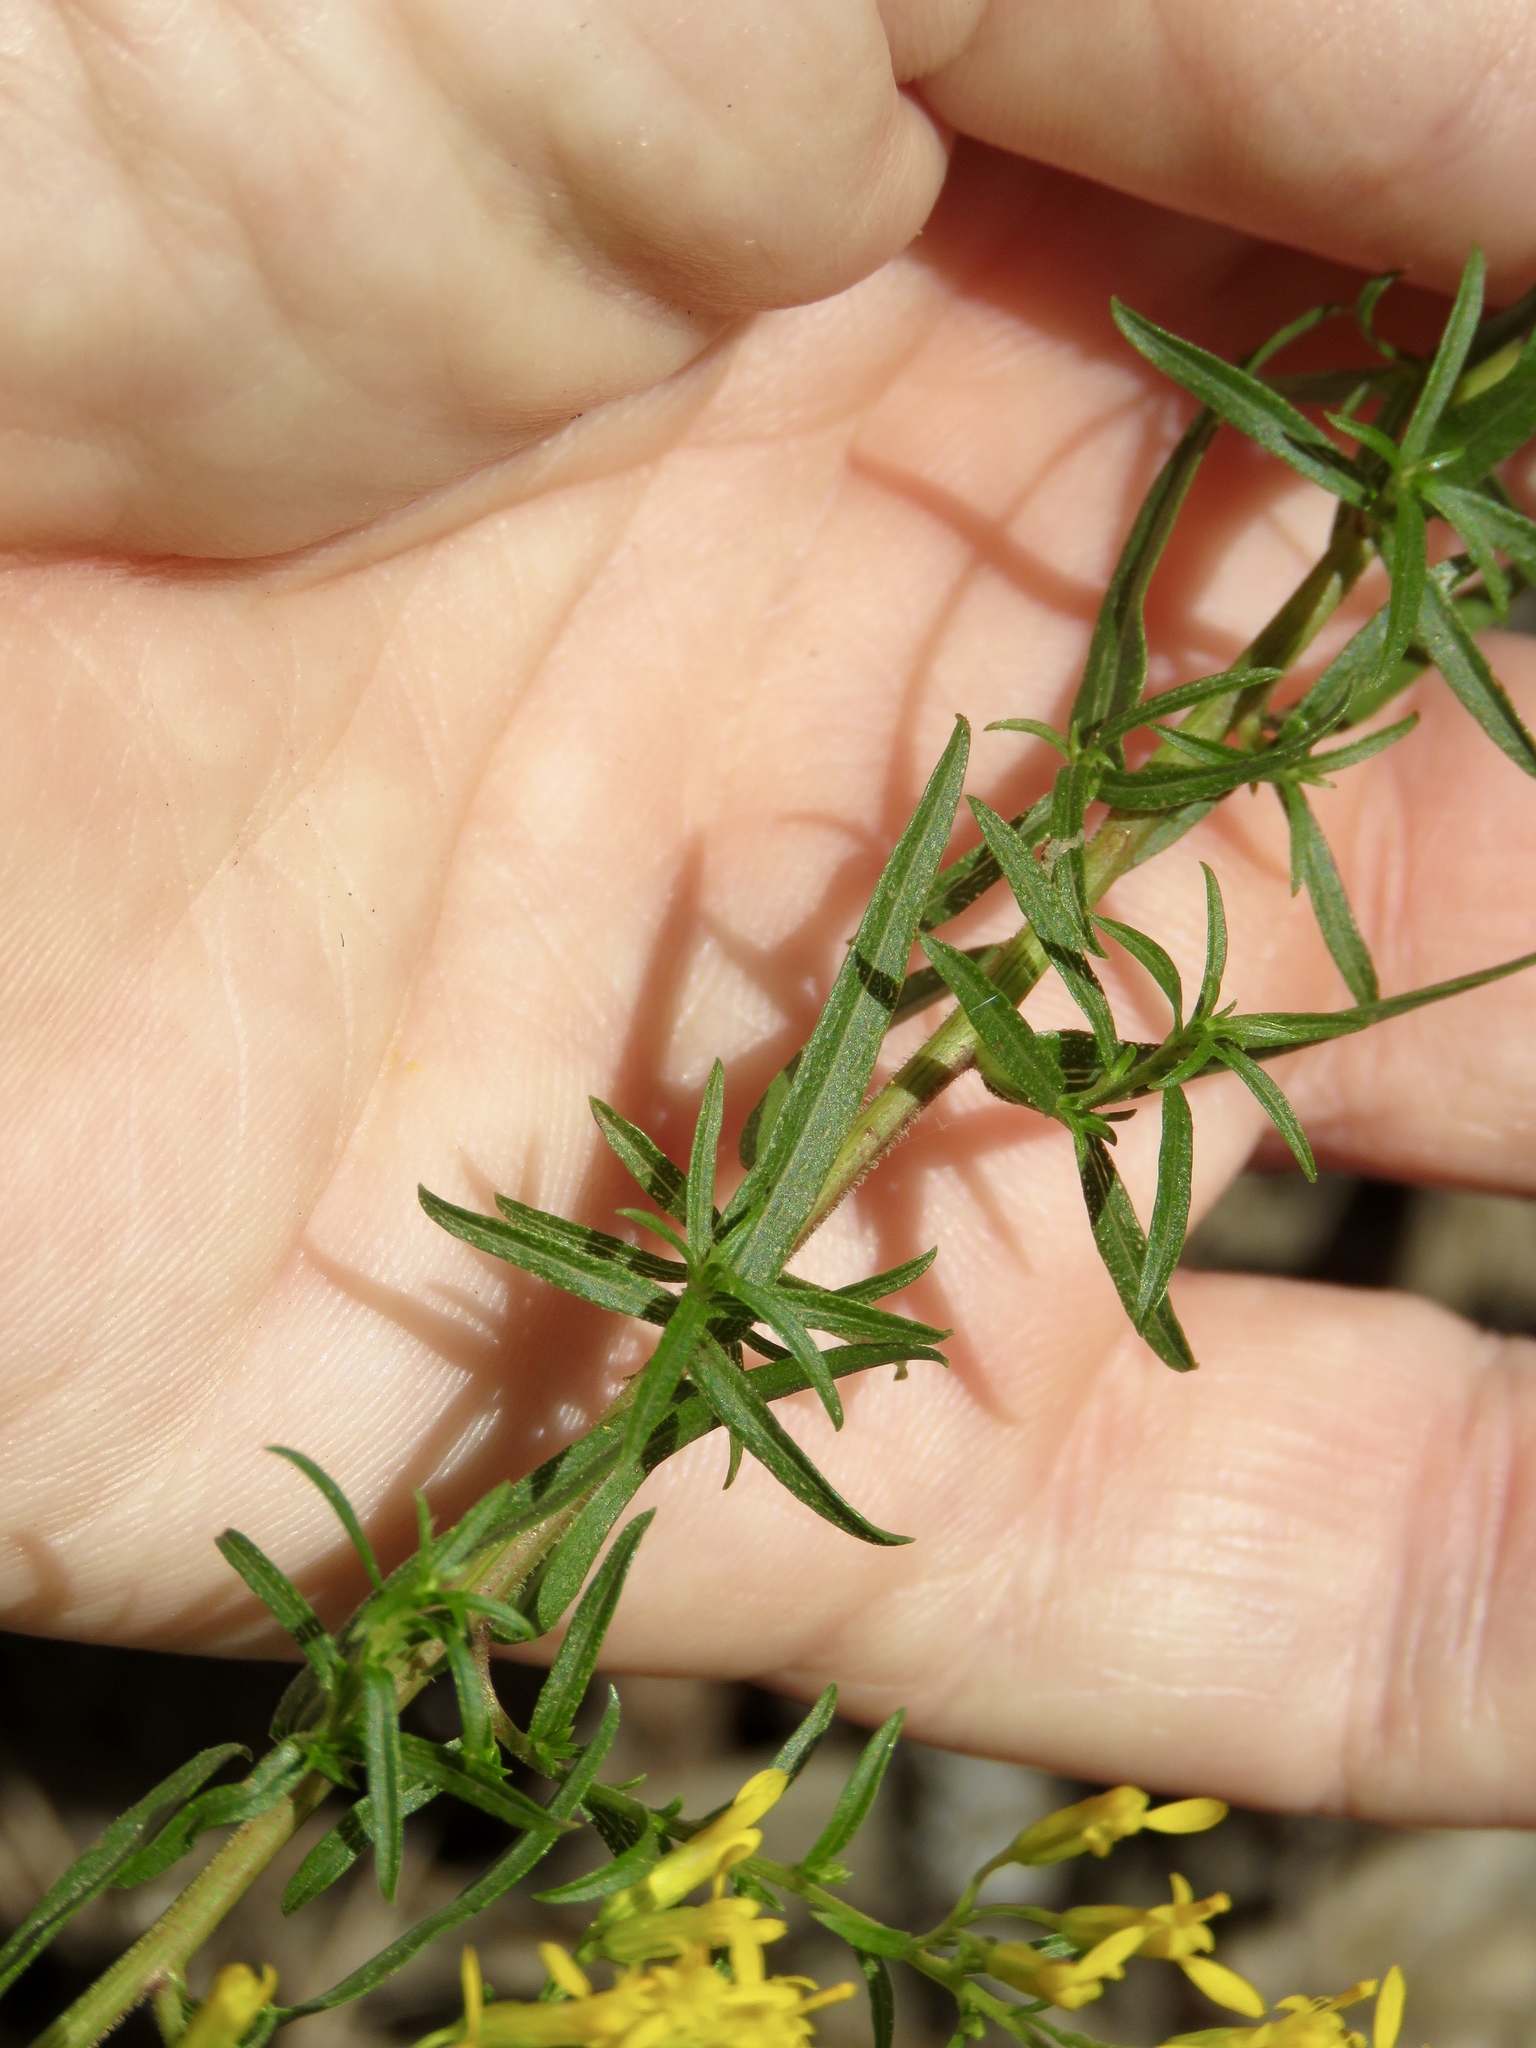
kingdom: Plantae
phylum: Tracheophyta
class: Magnoliopsida
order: Asterales
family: Asteraceae
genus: Solidago
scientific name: Solidago odora
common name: Anise-scented goldenrod
